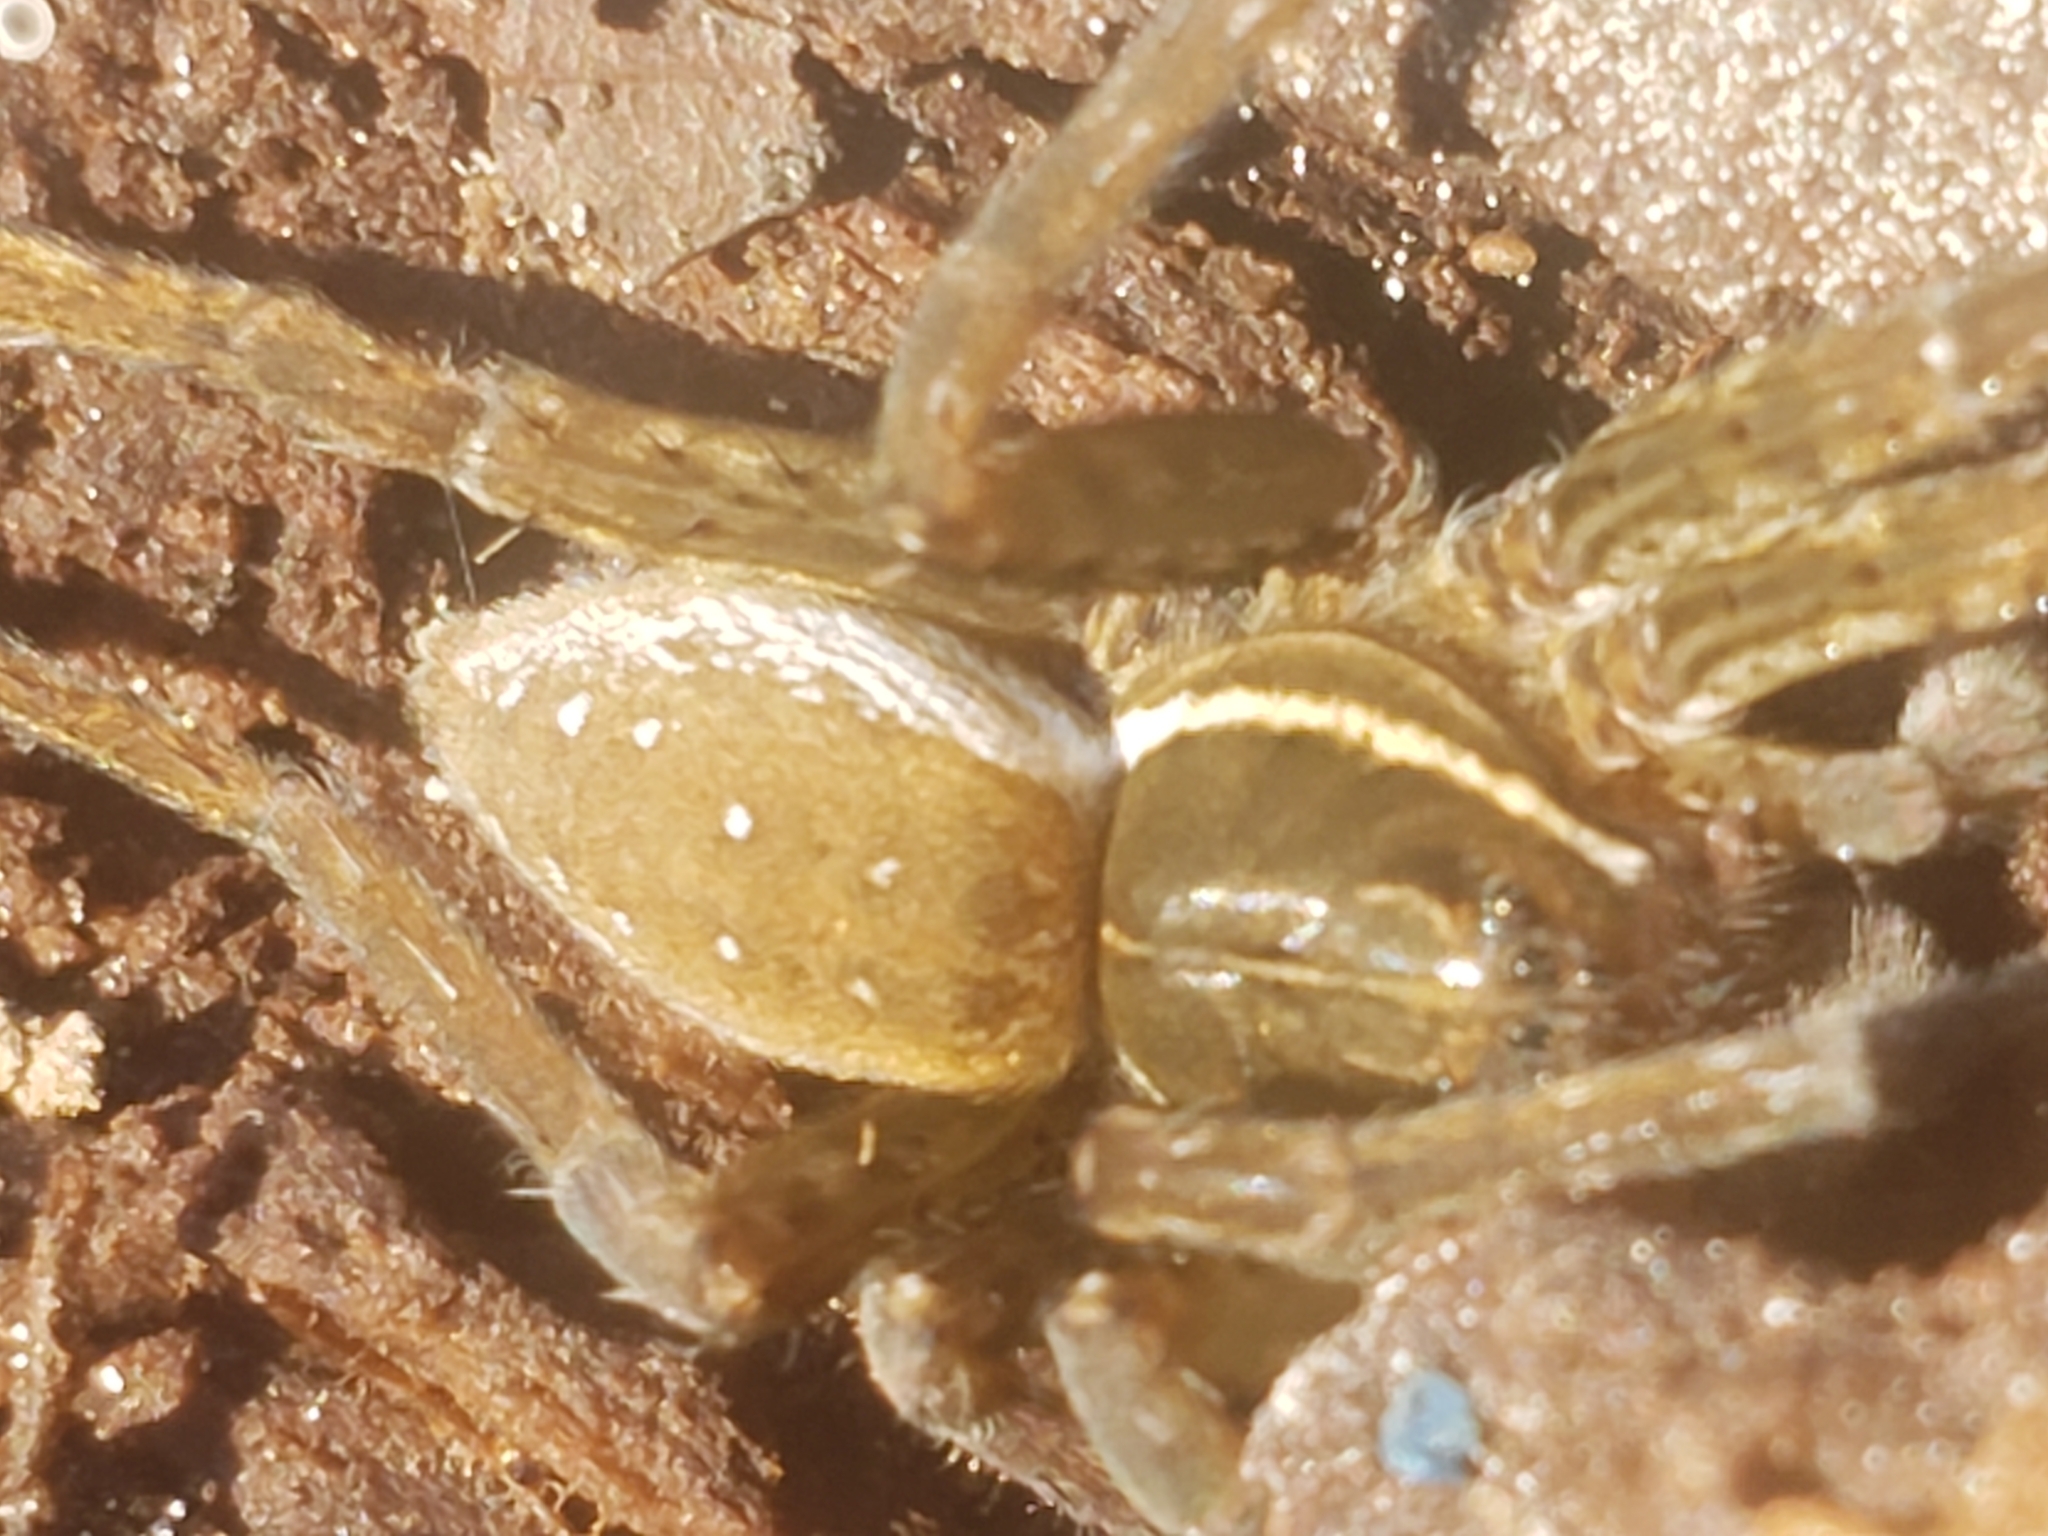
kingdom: Animalia
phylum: Arthropoda
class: Arachnida
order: Araneae
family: Pisauridae
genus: Dolomedes
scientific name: Dolomedes triton
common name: Six-spotted fishing spider
